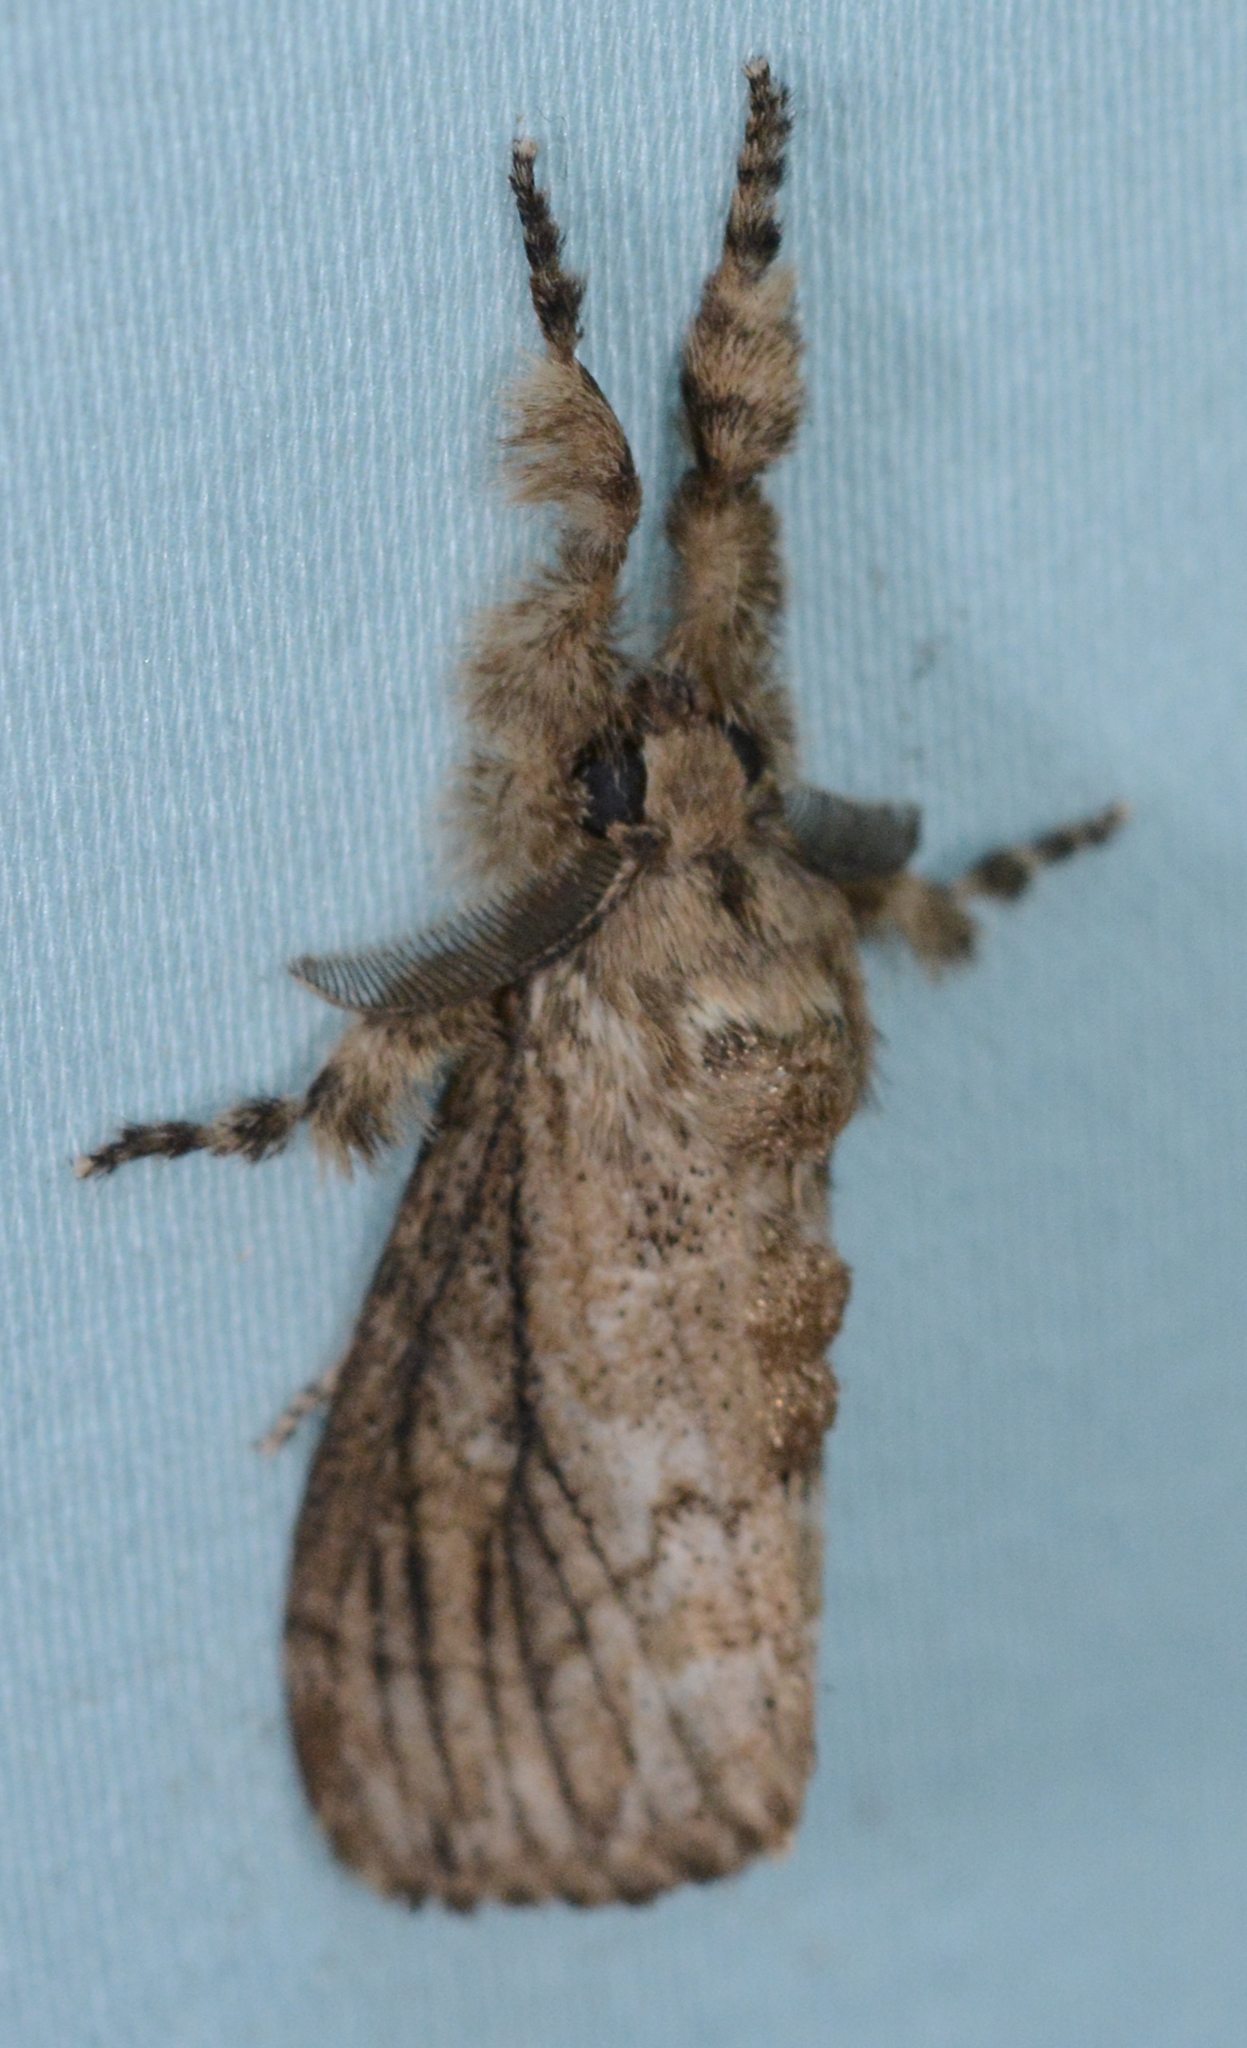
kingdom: Animalia
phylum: Arthropoda
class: Insecta
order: Lepidoptera
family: Erebidae
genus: Dasychira
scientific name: Dasychira atrivenosa
